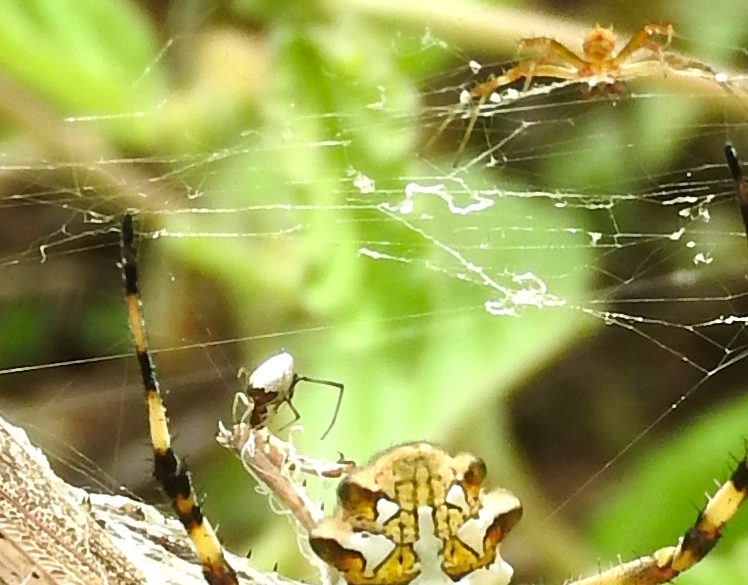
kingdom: Animalia
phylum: Arthropoda
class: Arachnida
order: Araneae
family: Araneidae
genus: Argiope
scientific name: Argiope argentata
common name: Orb weavers
